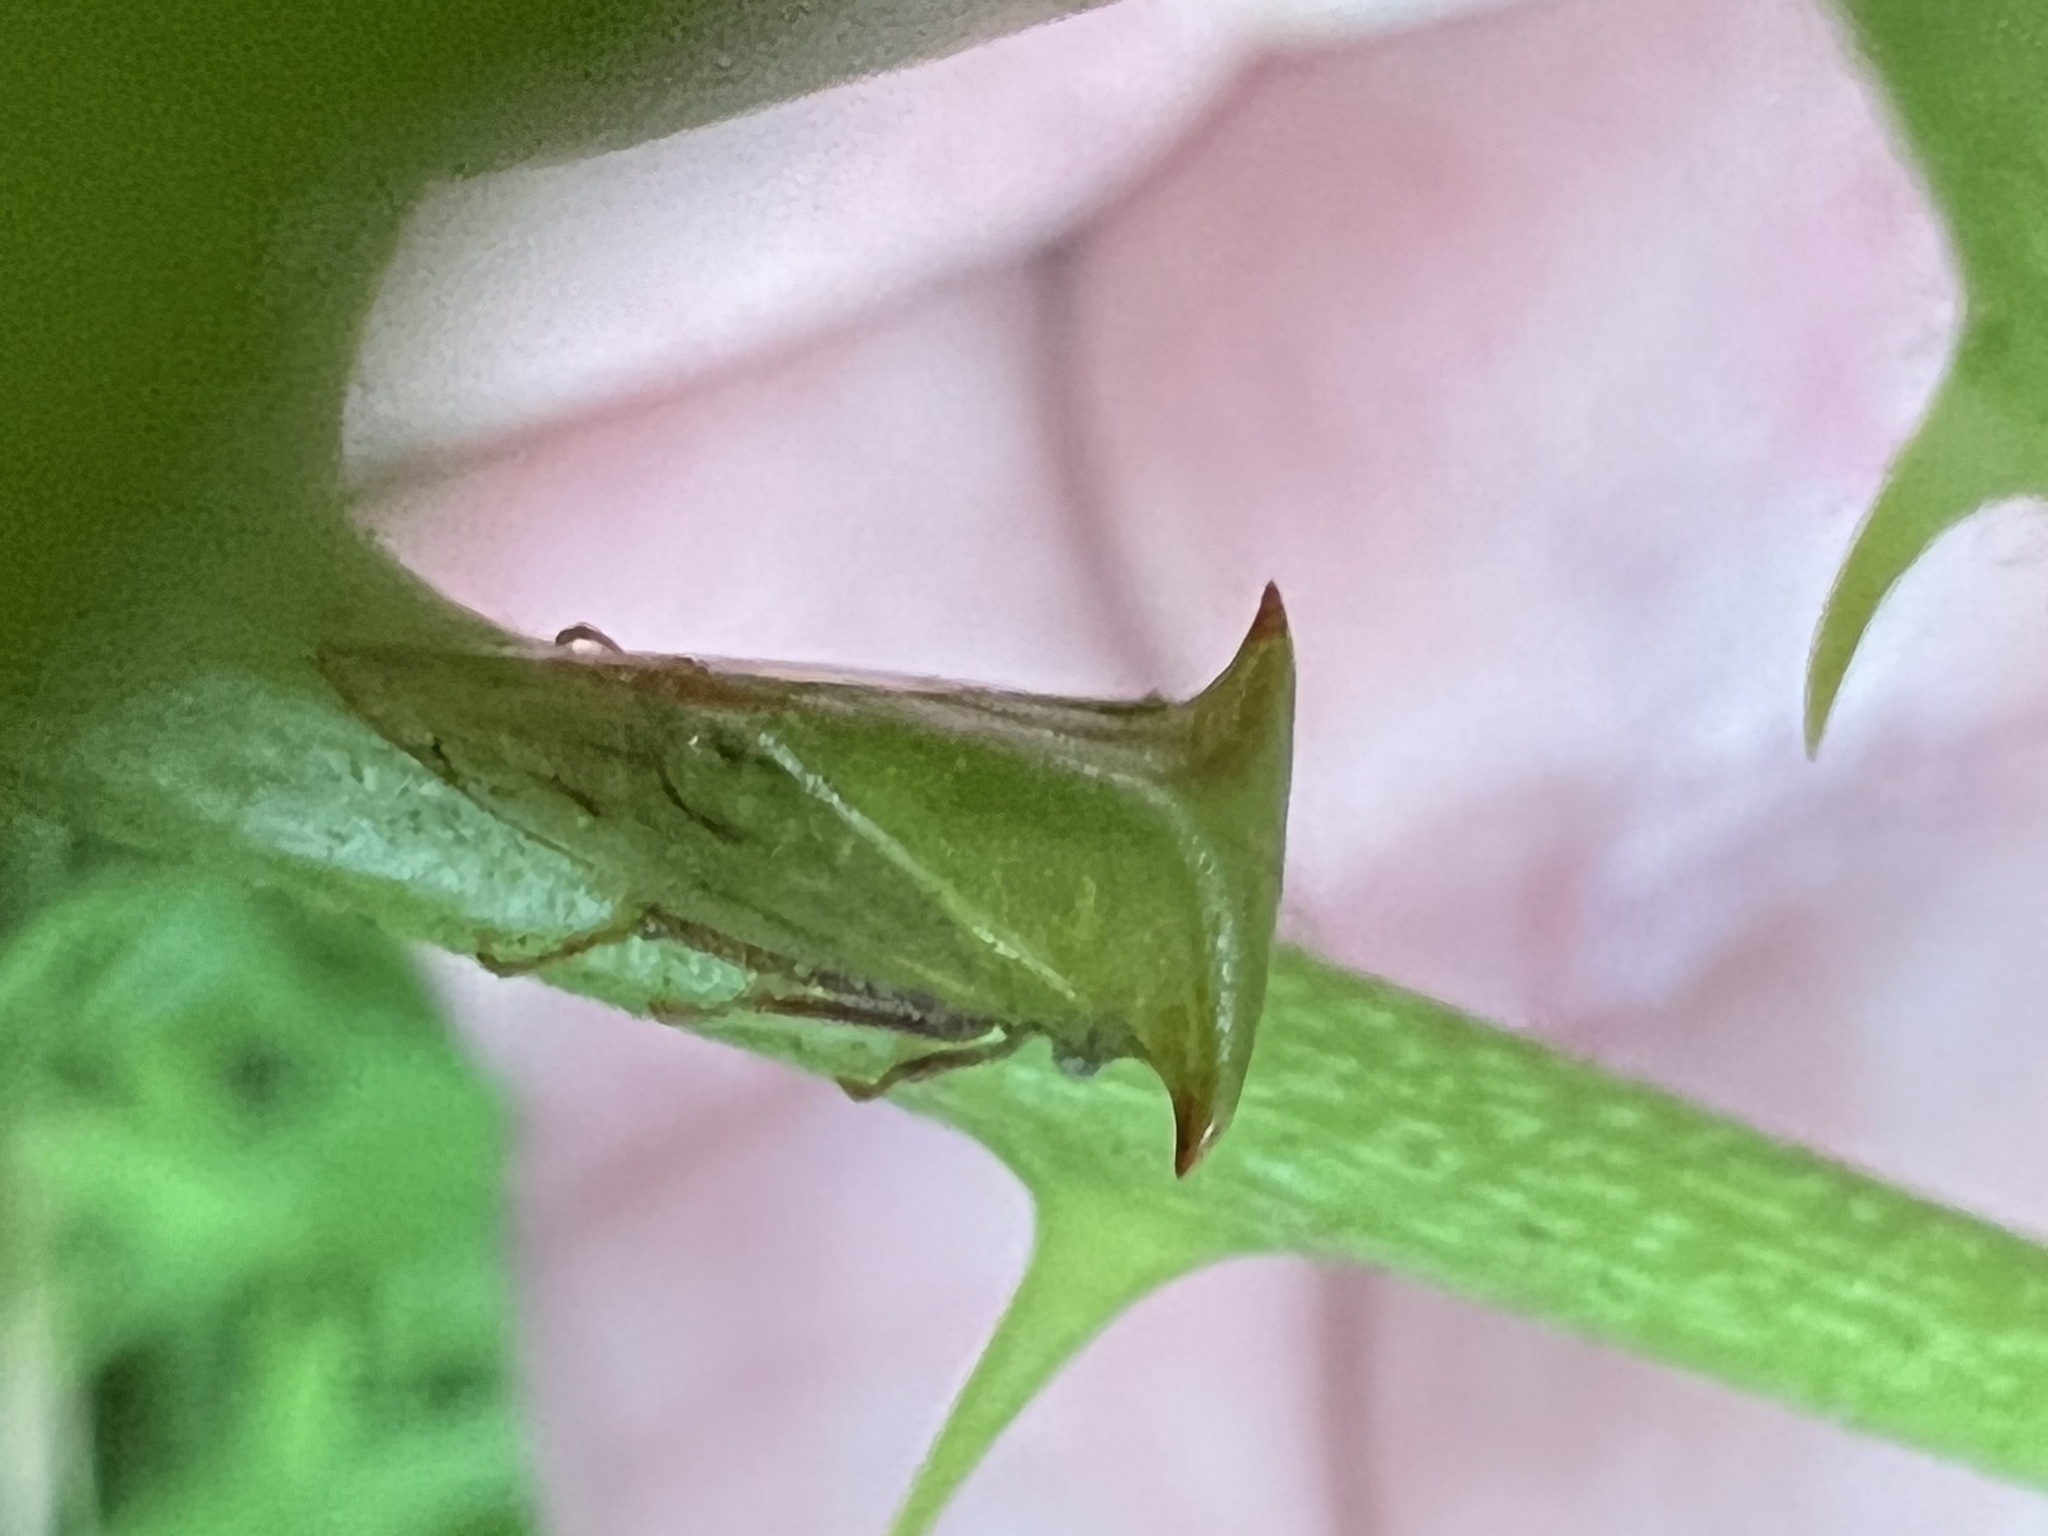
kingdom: Animalia
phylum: Arthropoda
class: Insecta
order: Hemiptera
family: Membracidae
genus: Stictocephala
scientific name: Stictocephala brevitylus
